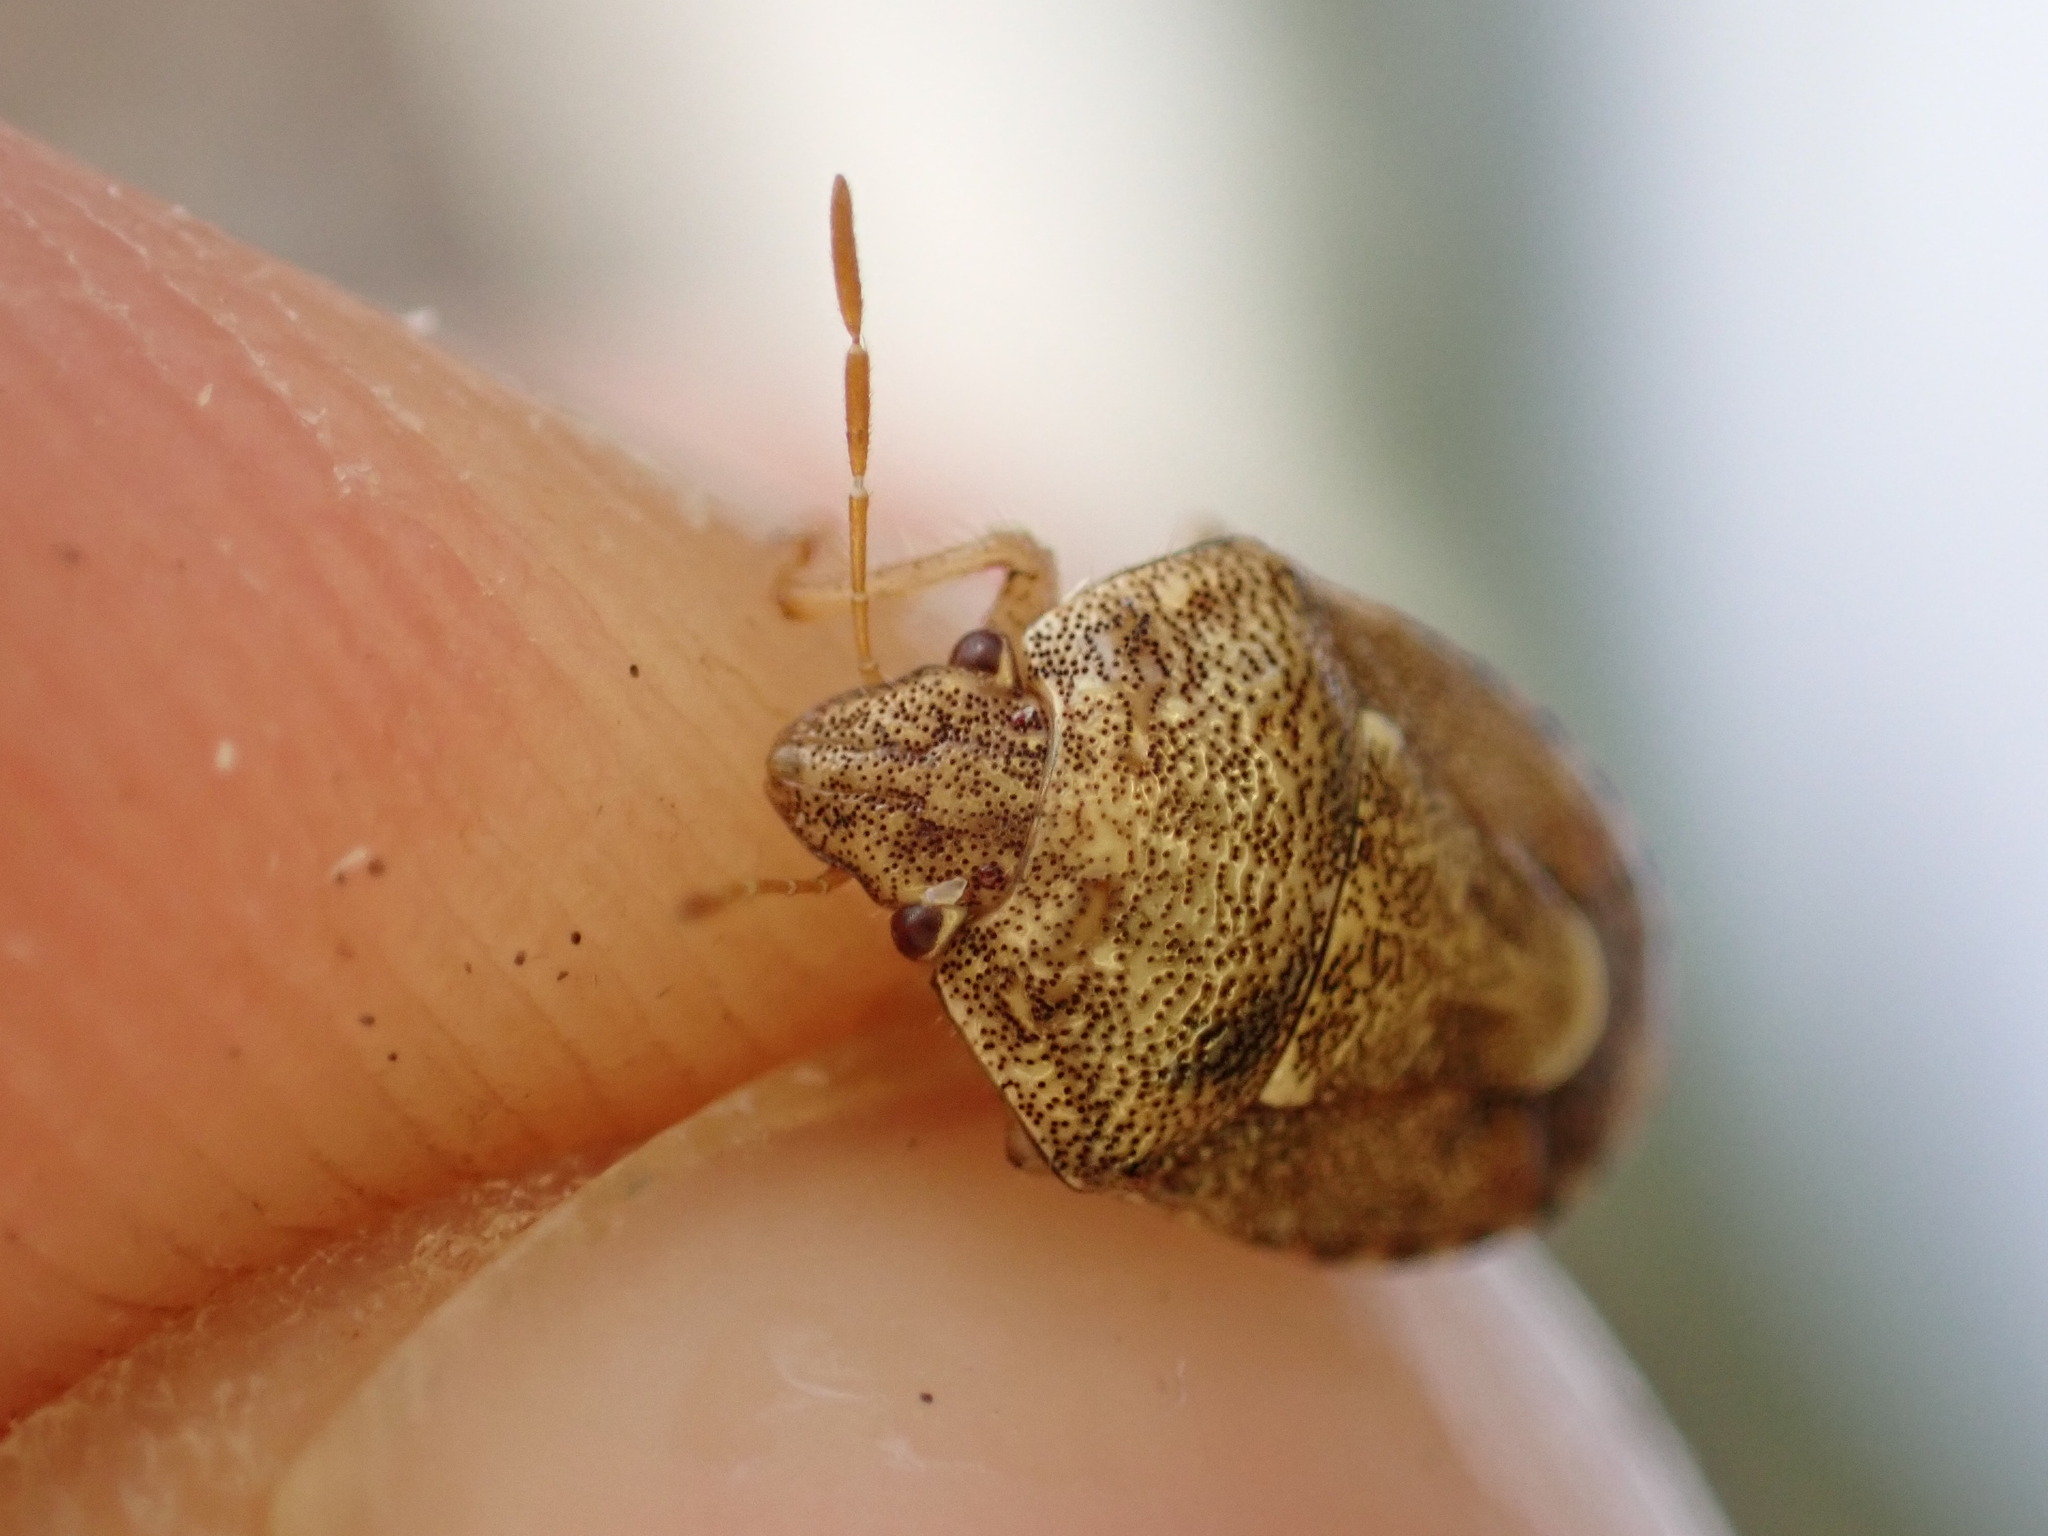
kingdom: Animalia
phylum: Arthropoda
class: Insecta
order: Hemiptera
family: Pentatomidae
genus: Staria
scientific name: Staria lunata
